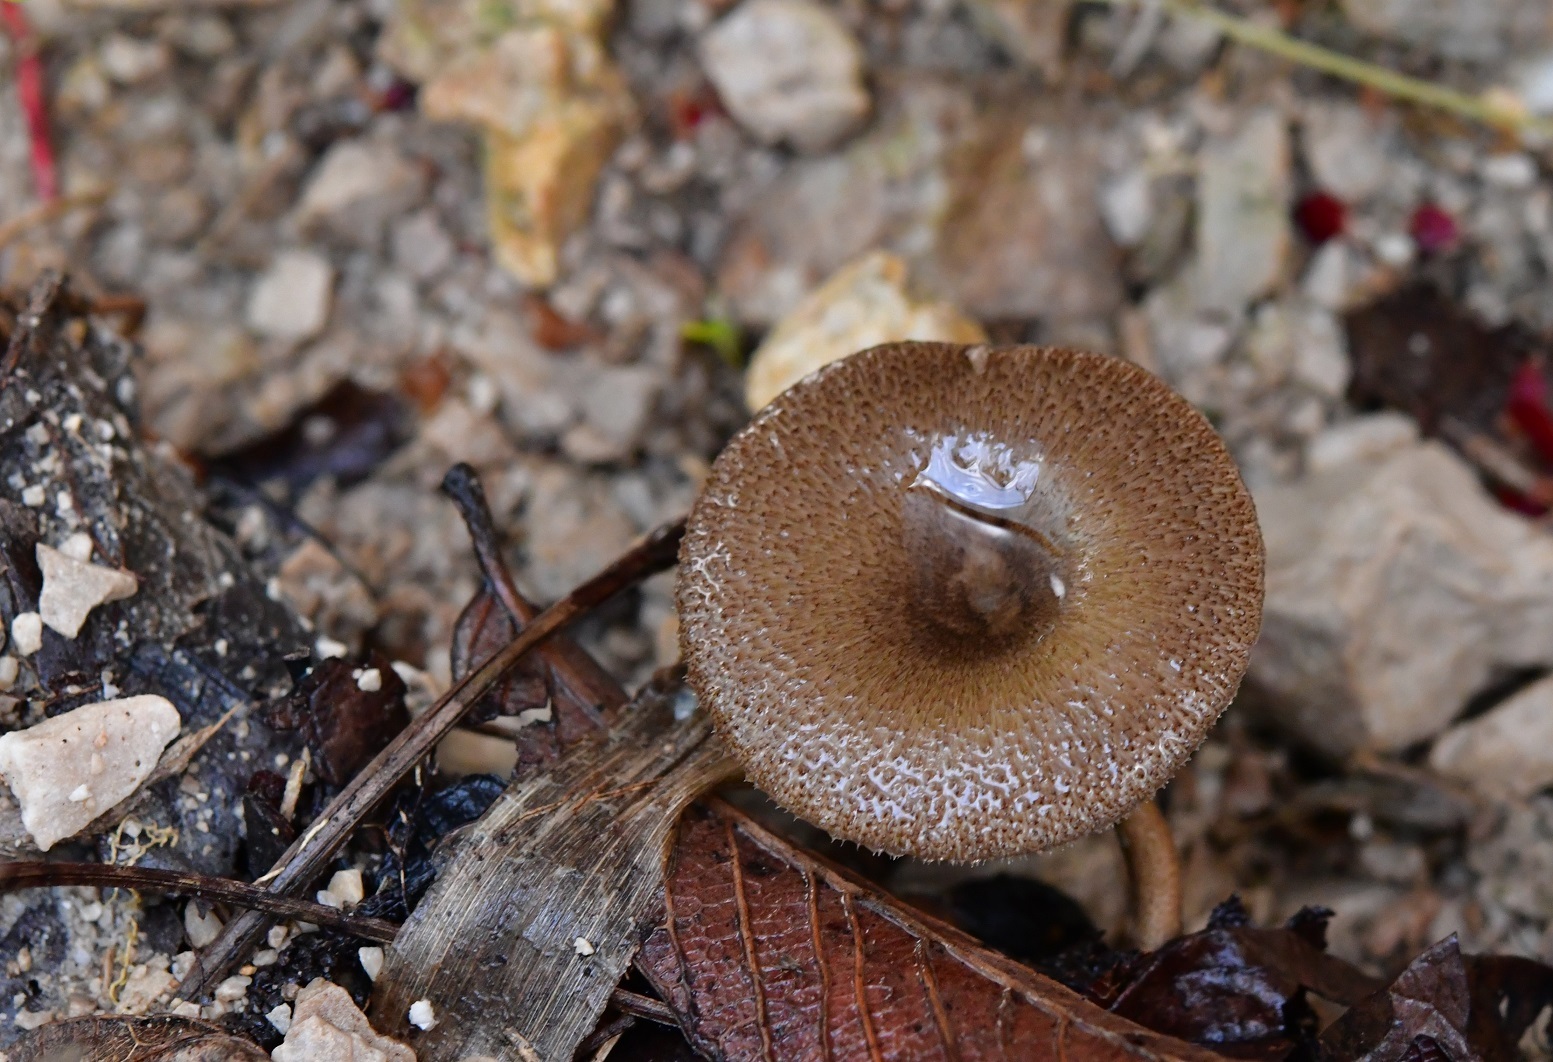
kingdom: Fungi
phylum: Basidiomycota
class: Agaricomycetes
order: Polyporales
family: Polyporaceae
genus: Lentinus
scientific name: Lentinus arcularius
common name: Spring polypore
